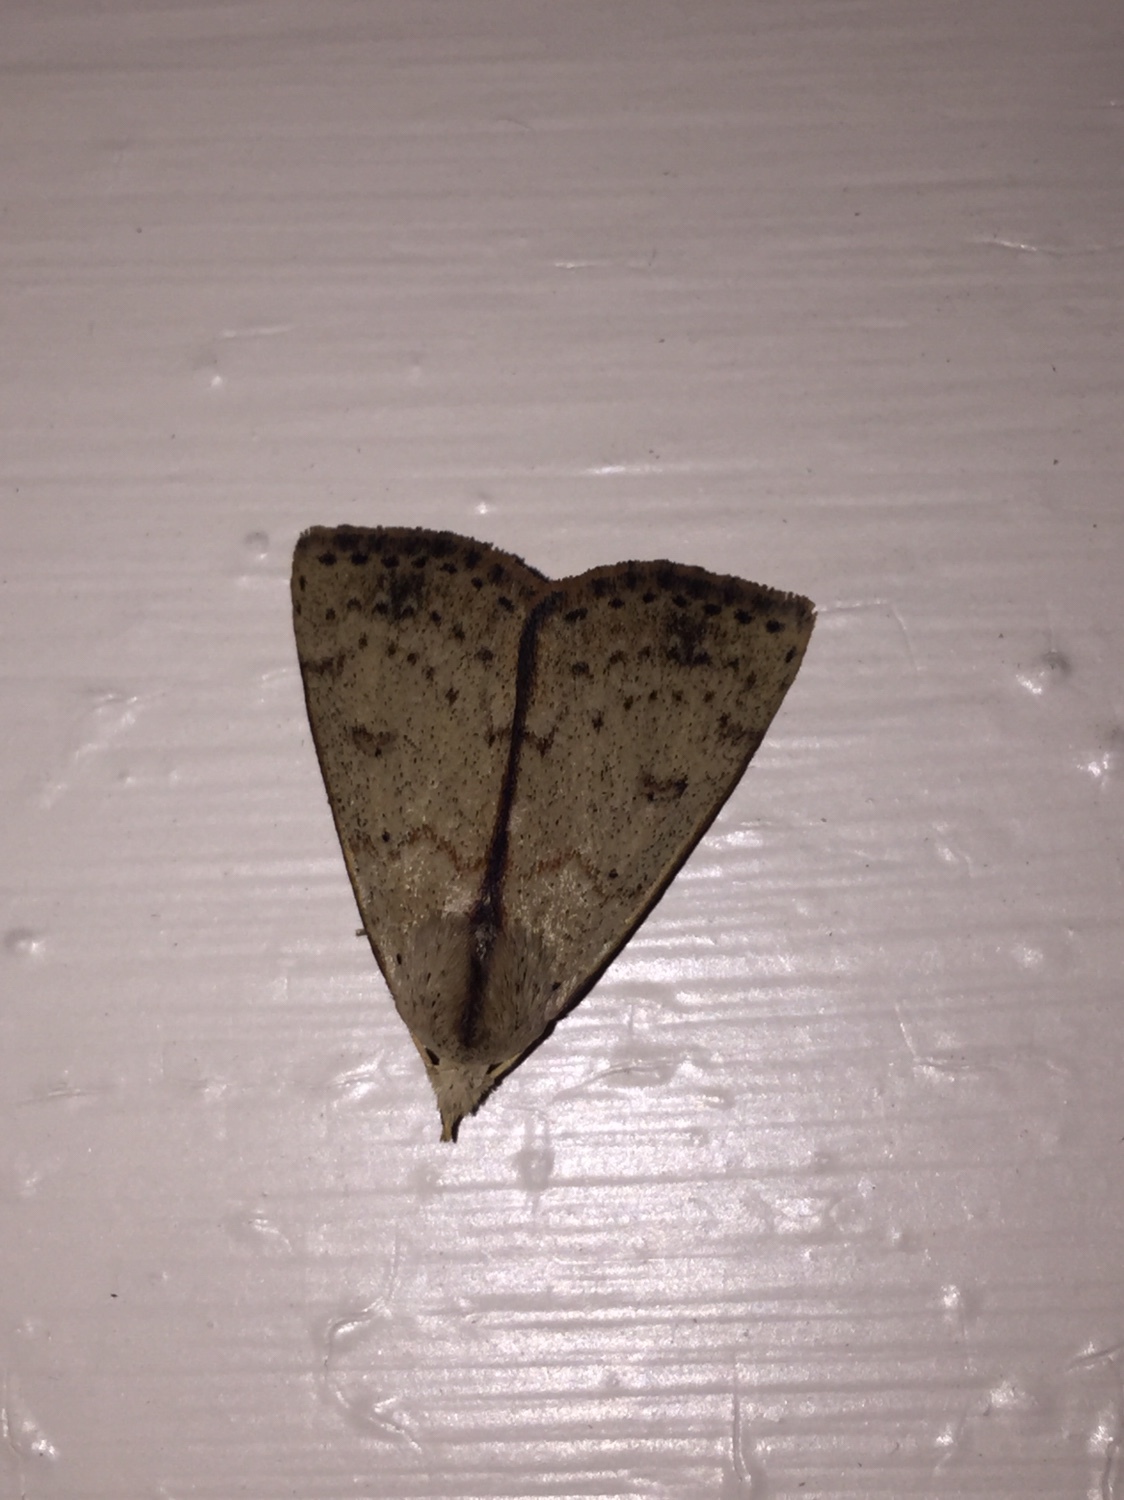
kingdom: Animalia
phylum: Arthropoda
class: Insecta
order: Lepidoptera
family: Erebidae
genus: Scolecocampa
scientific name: Scolecocampa liburna
